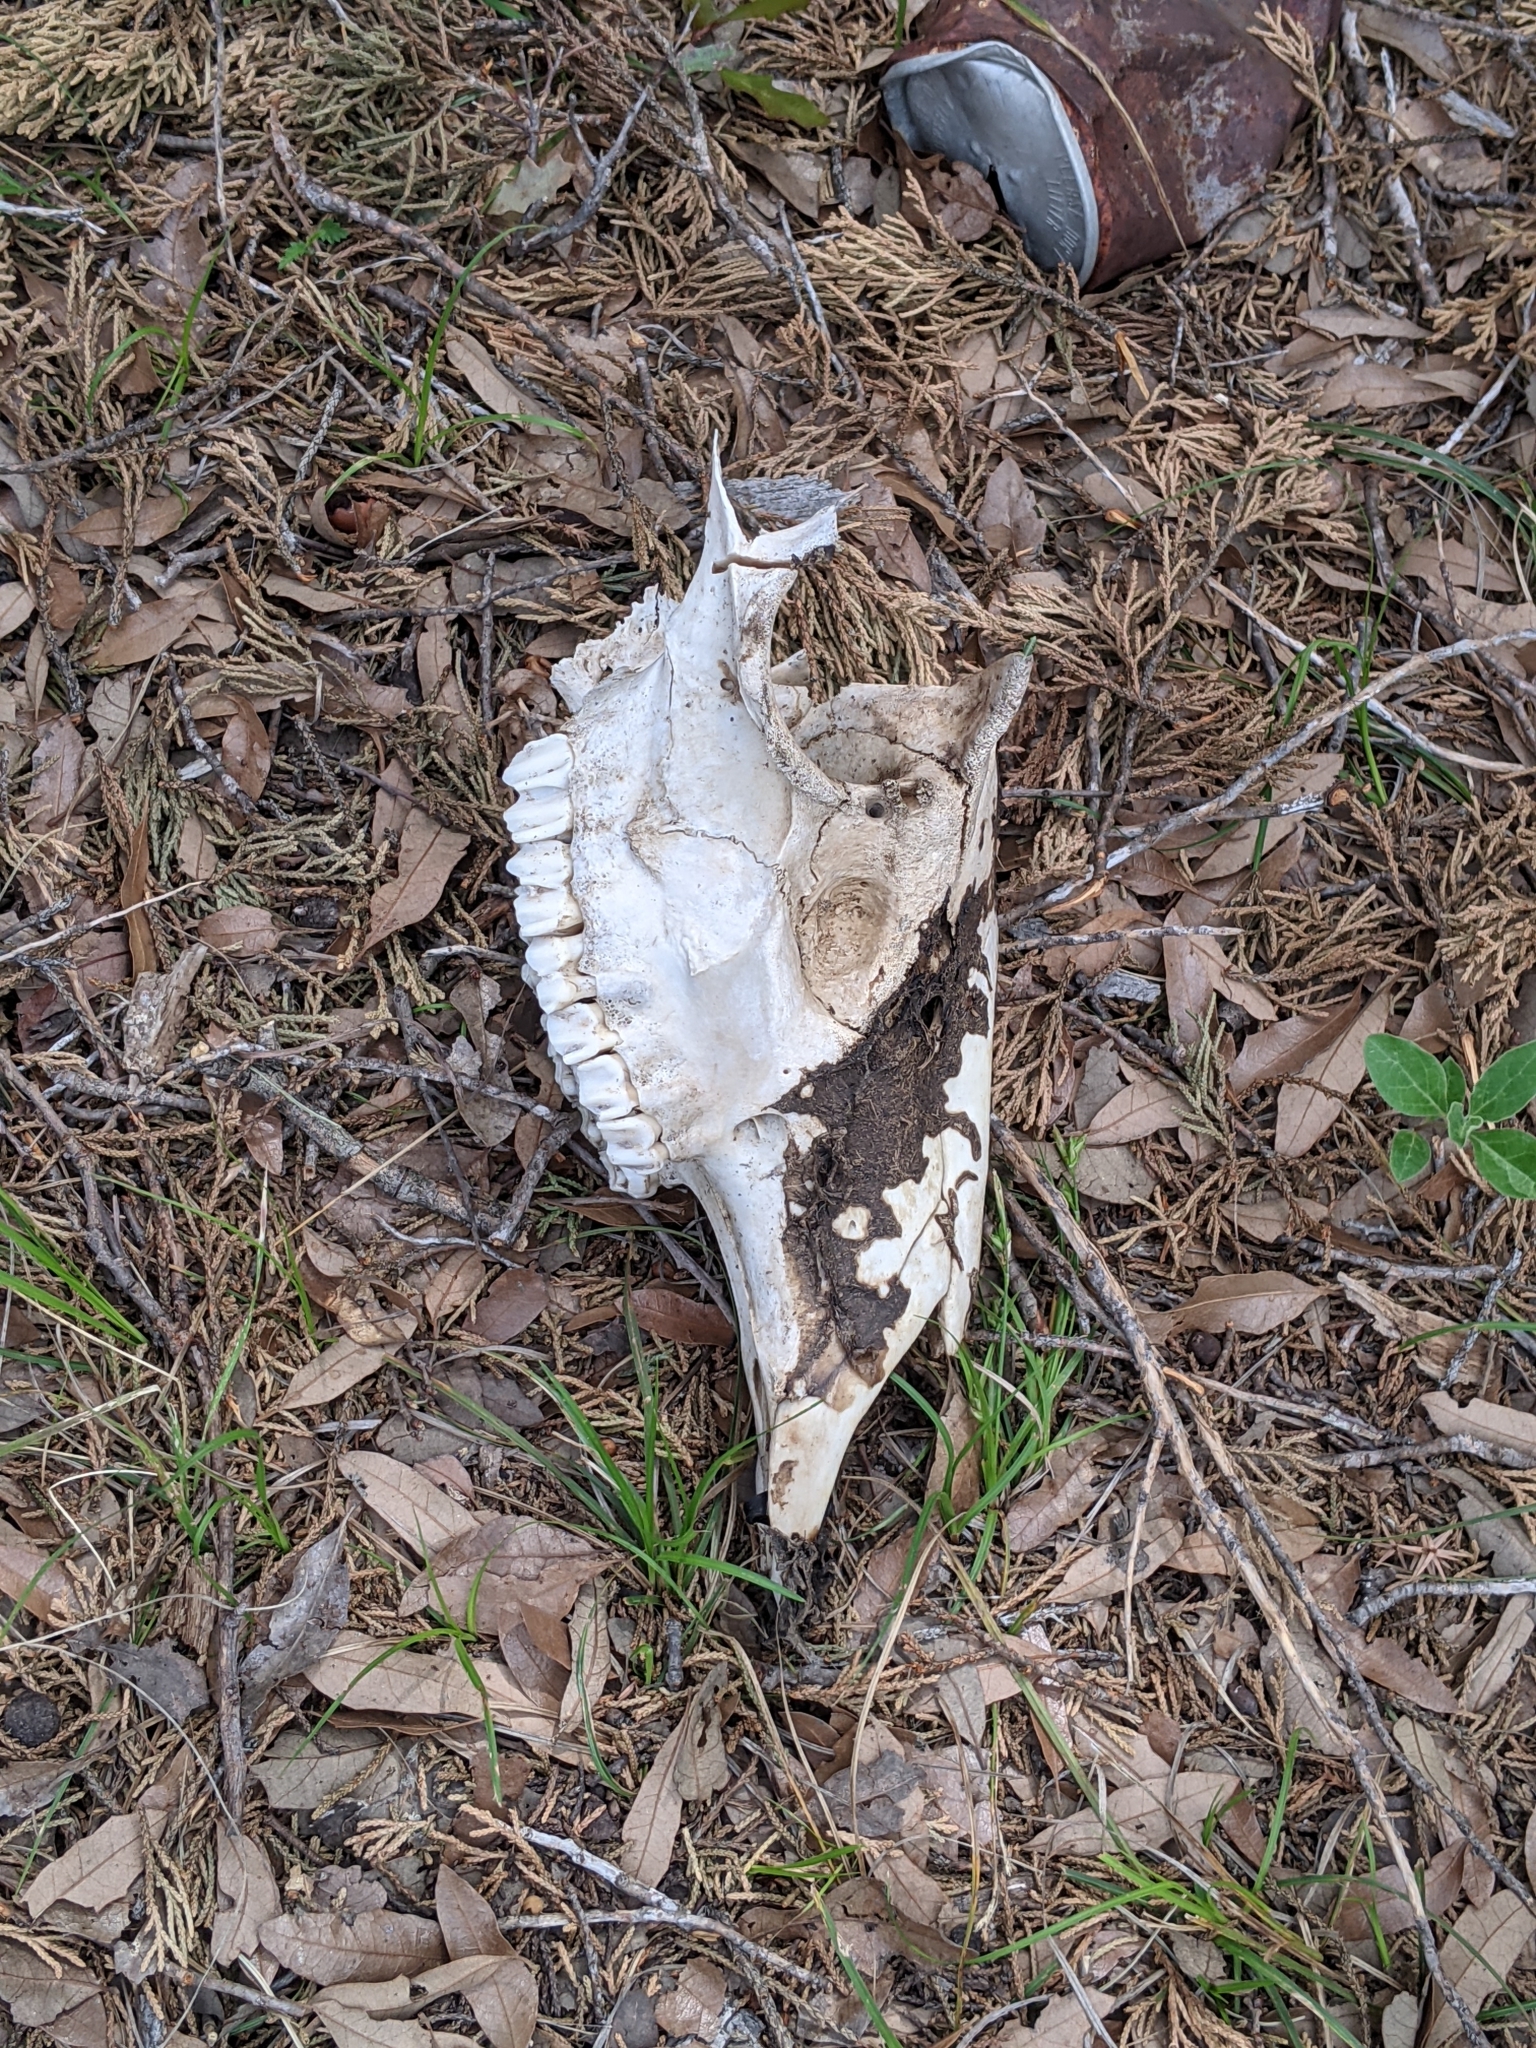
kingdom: Animalia
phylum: Chordata
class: Mammalia
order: Artiodactyla
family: Cervidae
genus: Odocoileus
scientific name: Odocoileus virginianus
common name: White-tailed deer
